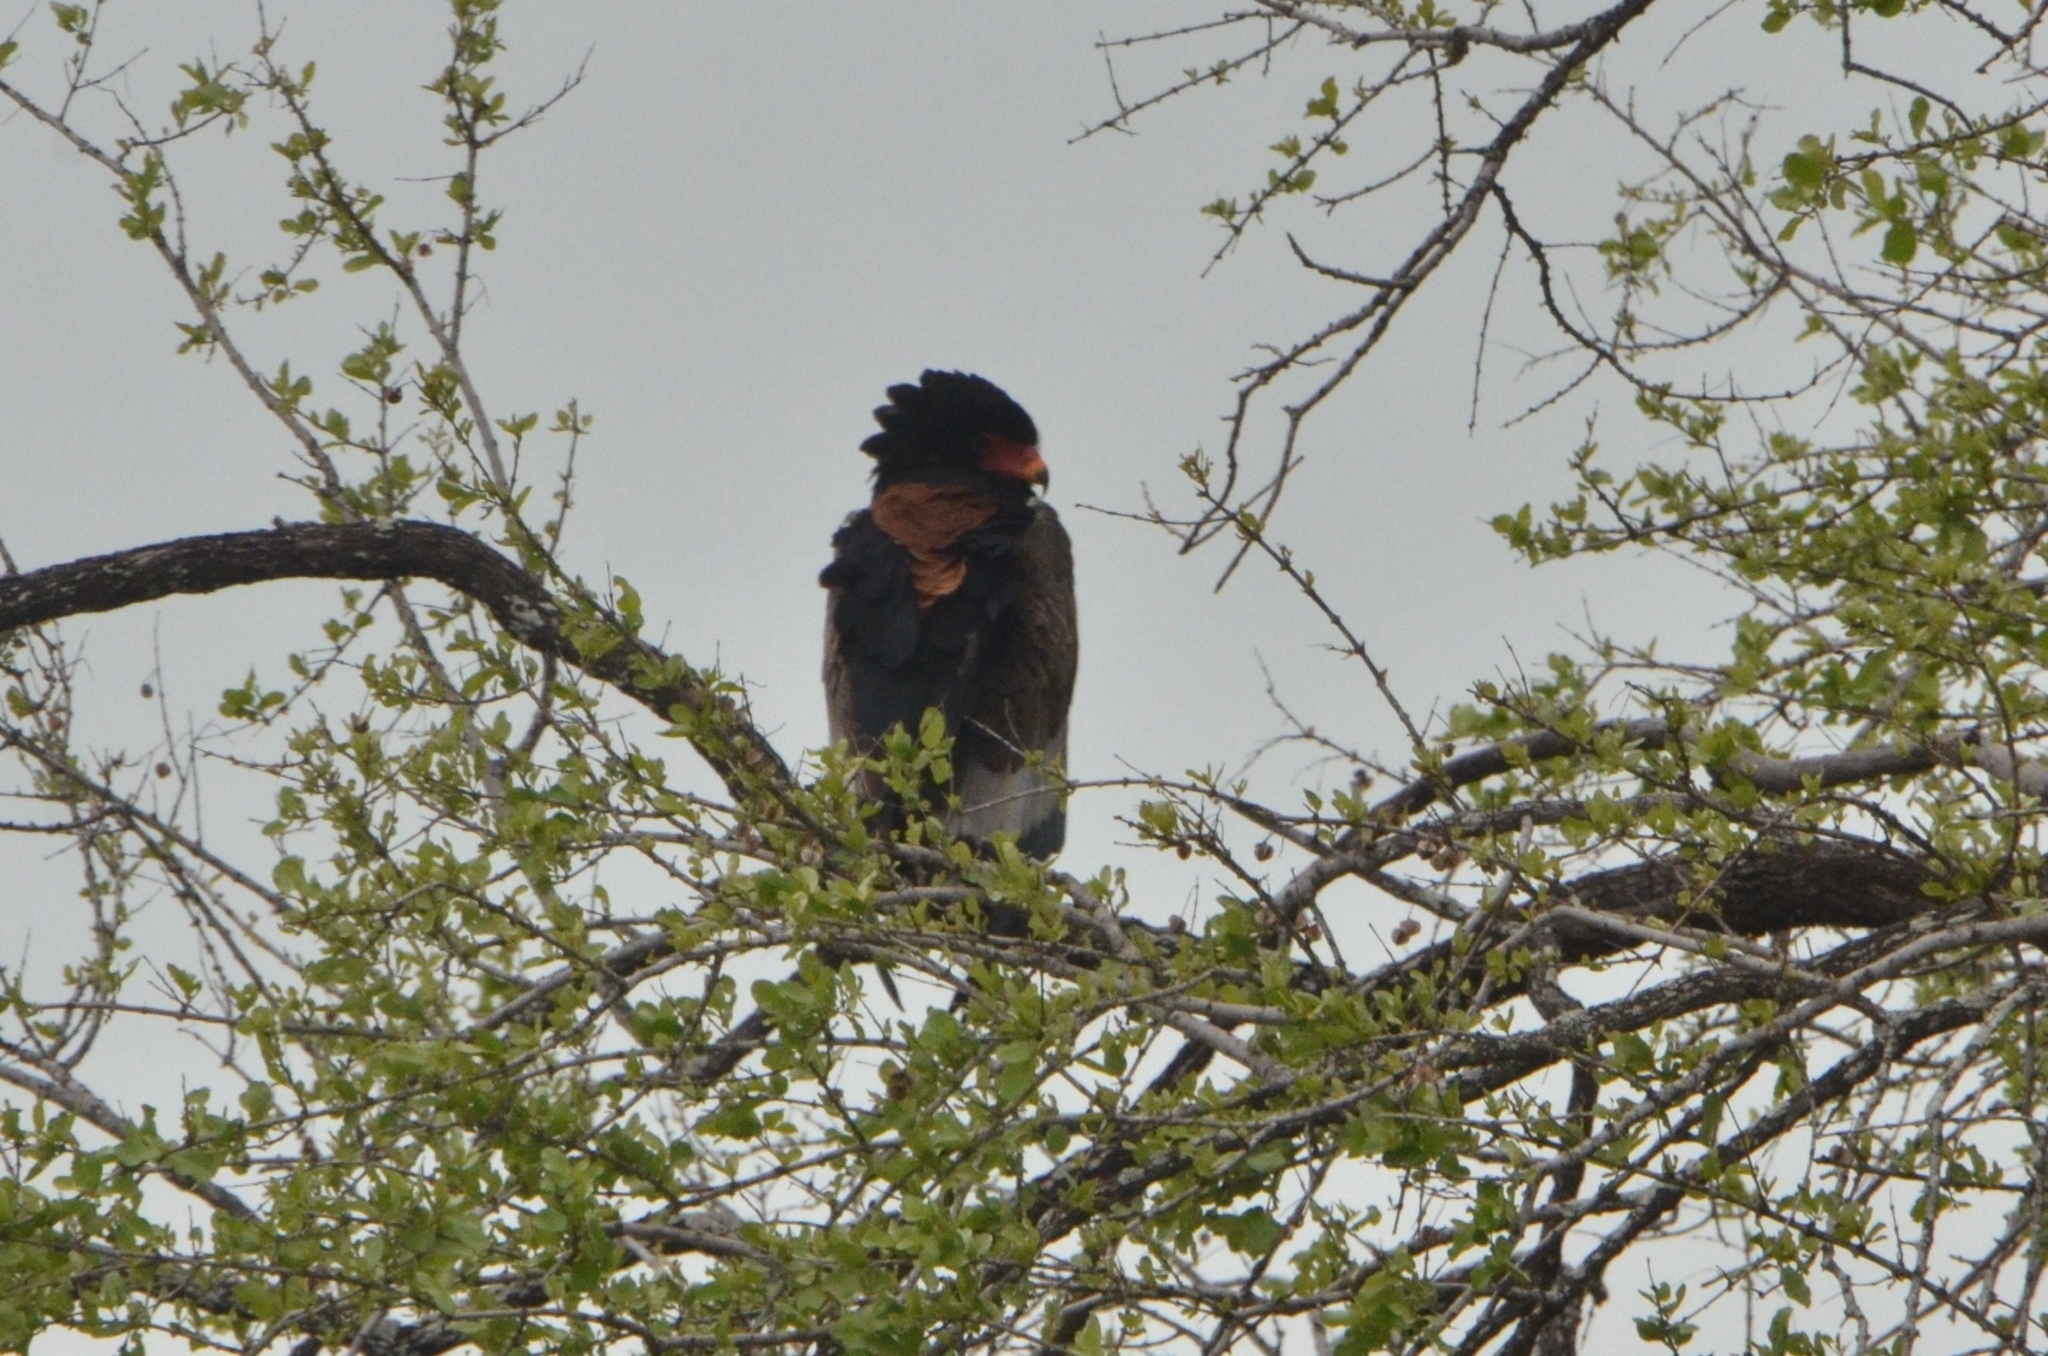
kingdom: Animalia
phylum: Chordata
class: Aves
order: Accipitriformes
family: Accipitridae
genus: Terathopius
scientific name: Terathopius ecaudatus
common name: Bateleur
